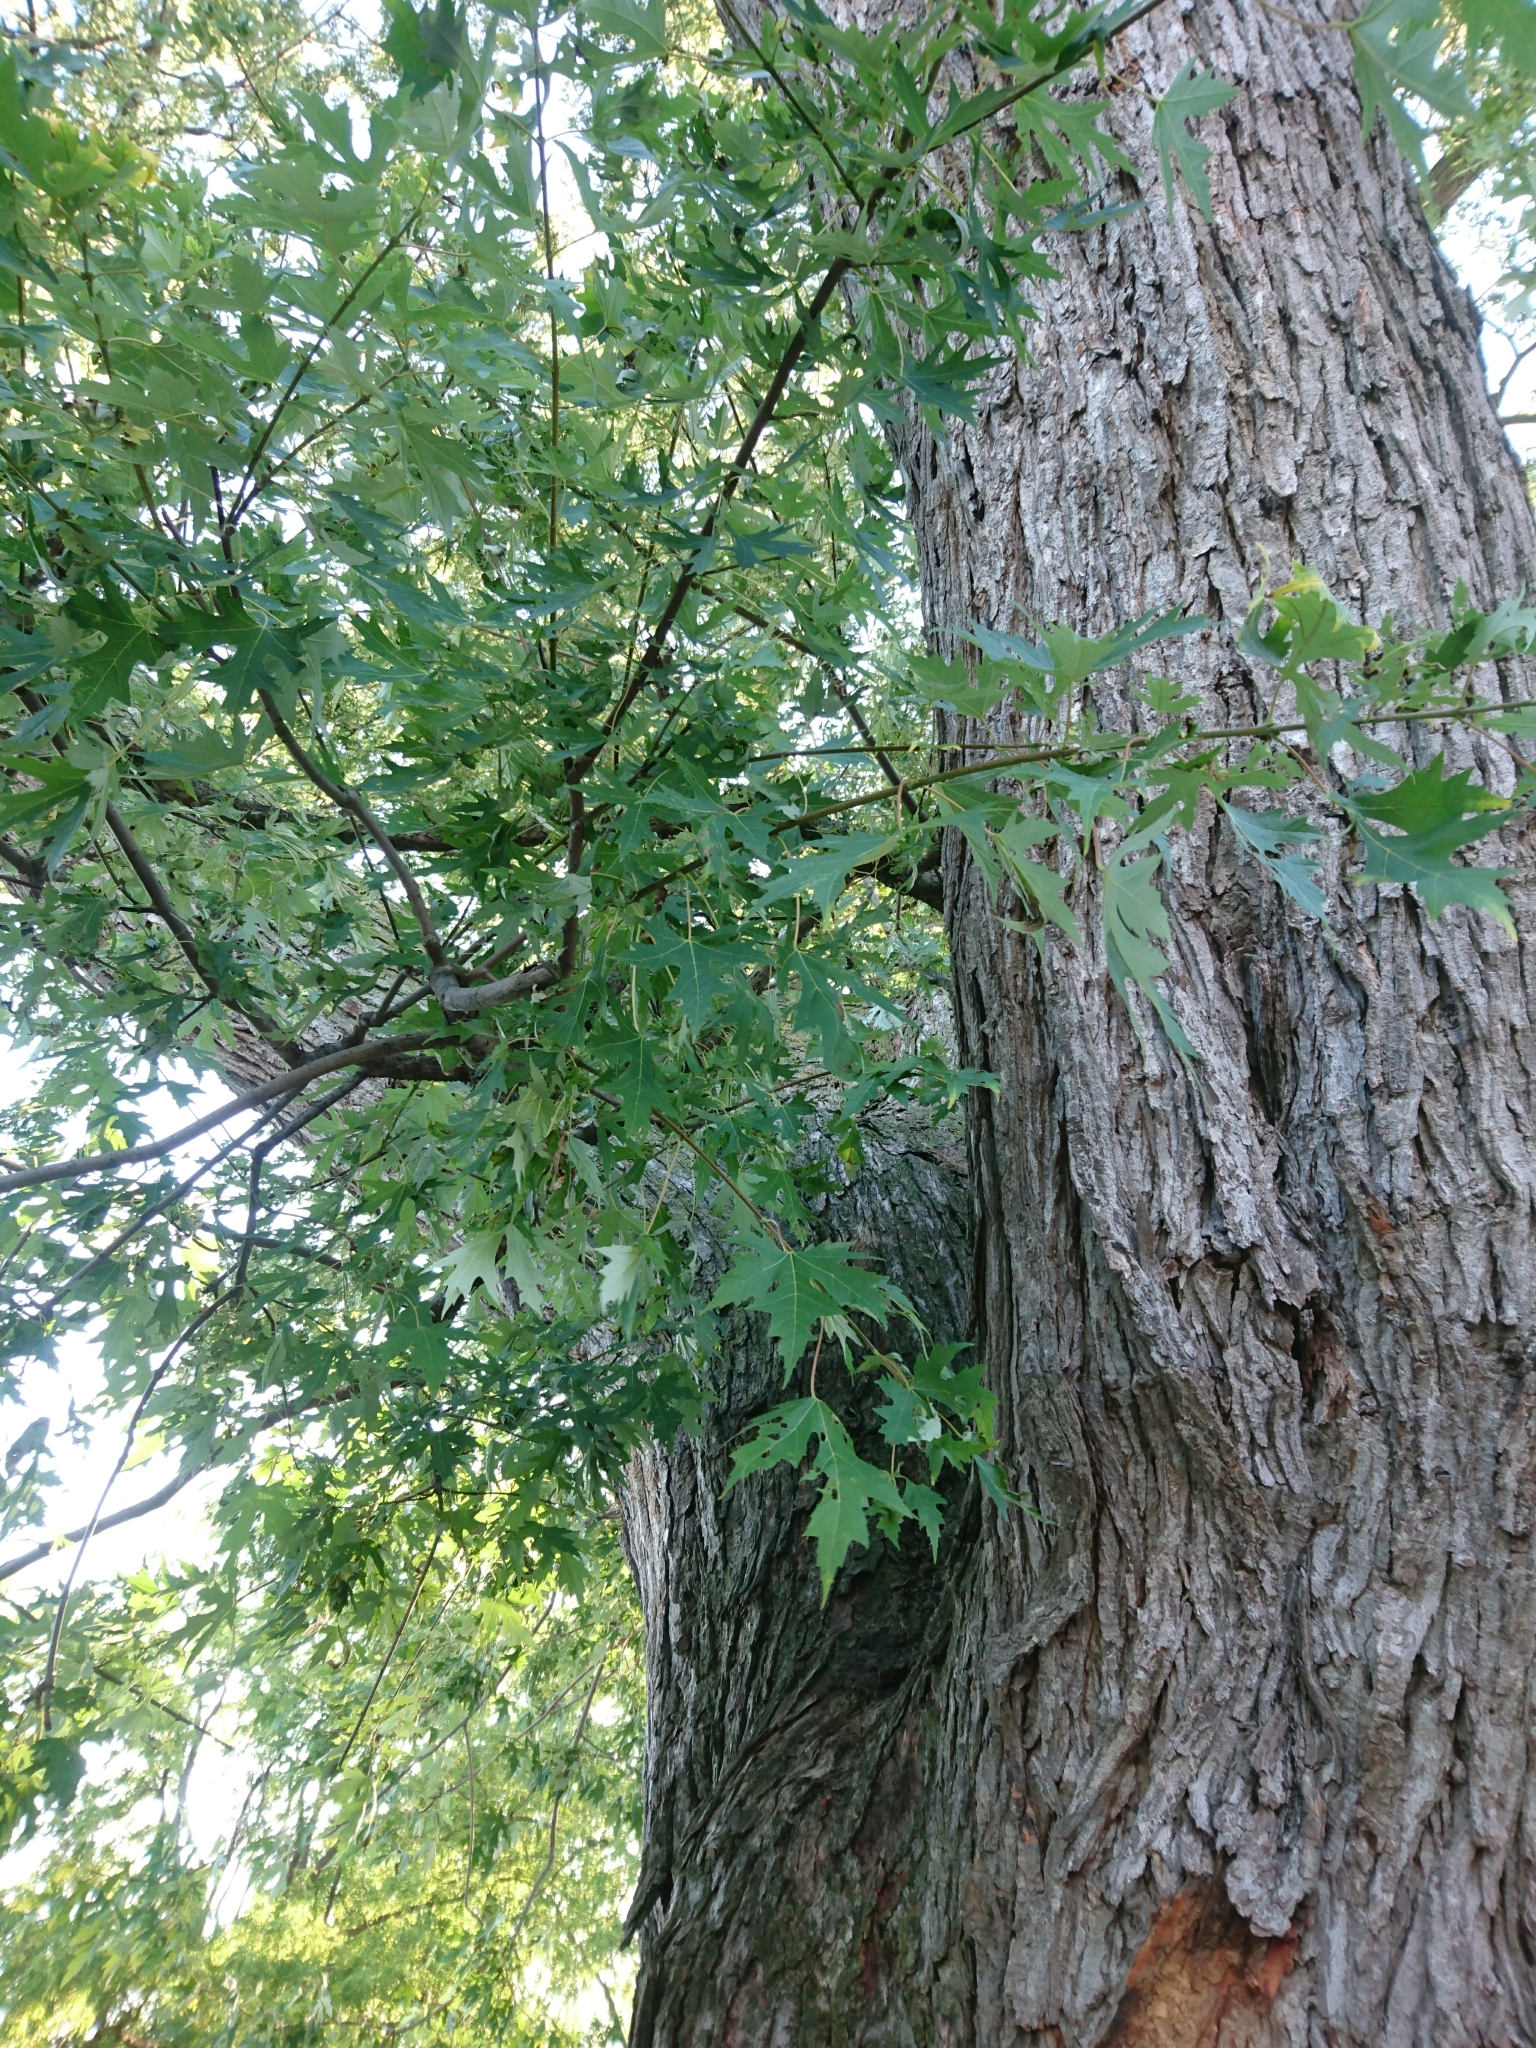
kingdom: Plantae
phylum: Tracheophyta
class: Magnoliopsida
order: Sapindales
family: Sapindaceae
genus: Acer
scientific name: Acer saccharinum
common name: Silver maple
